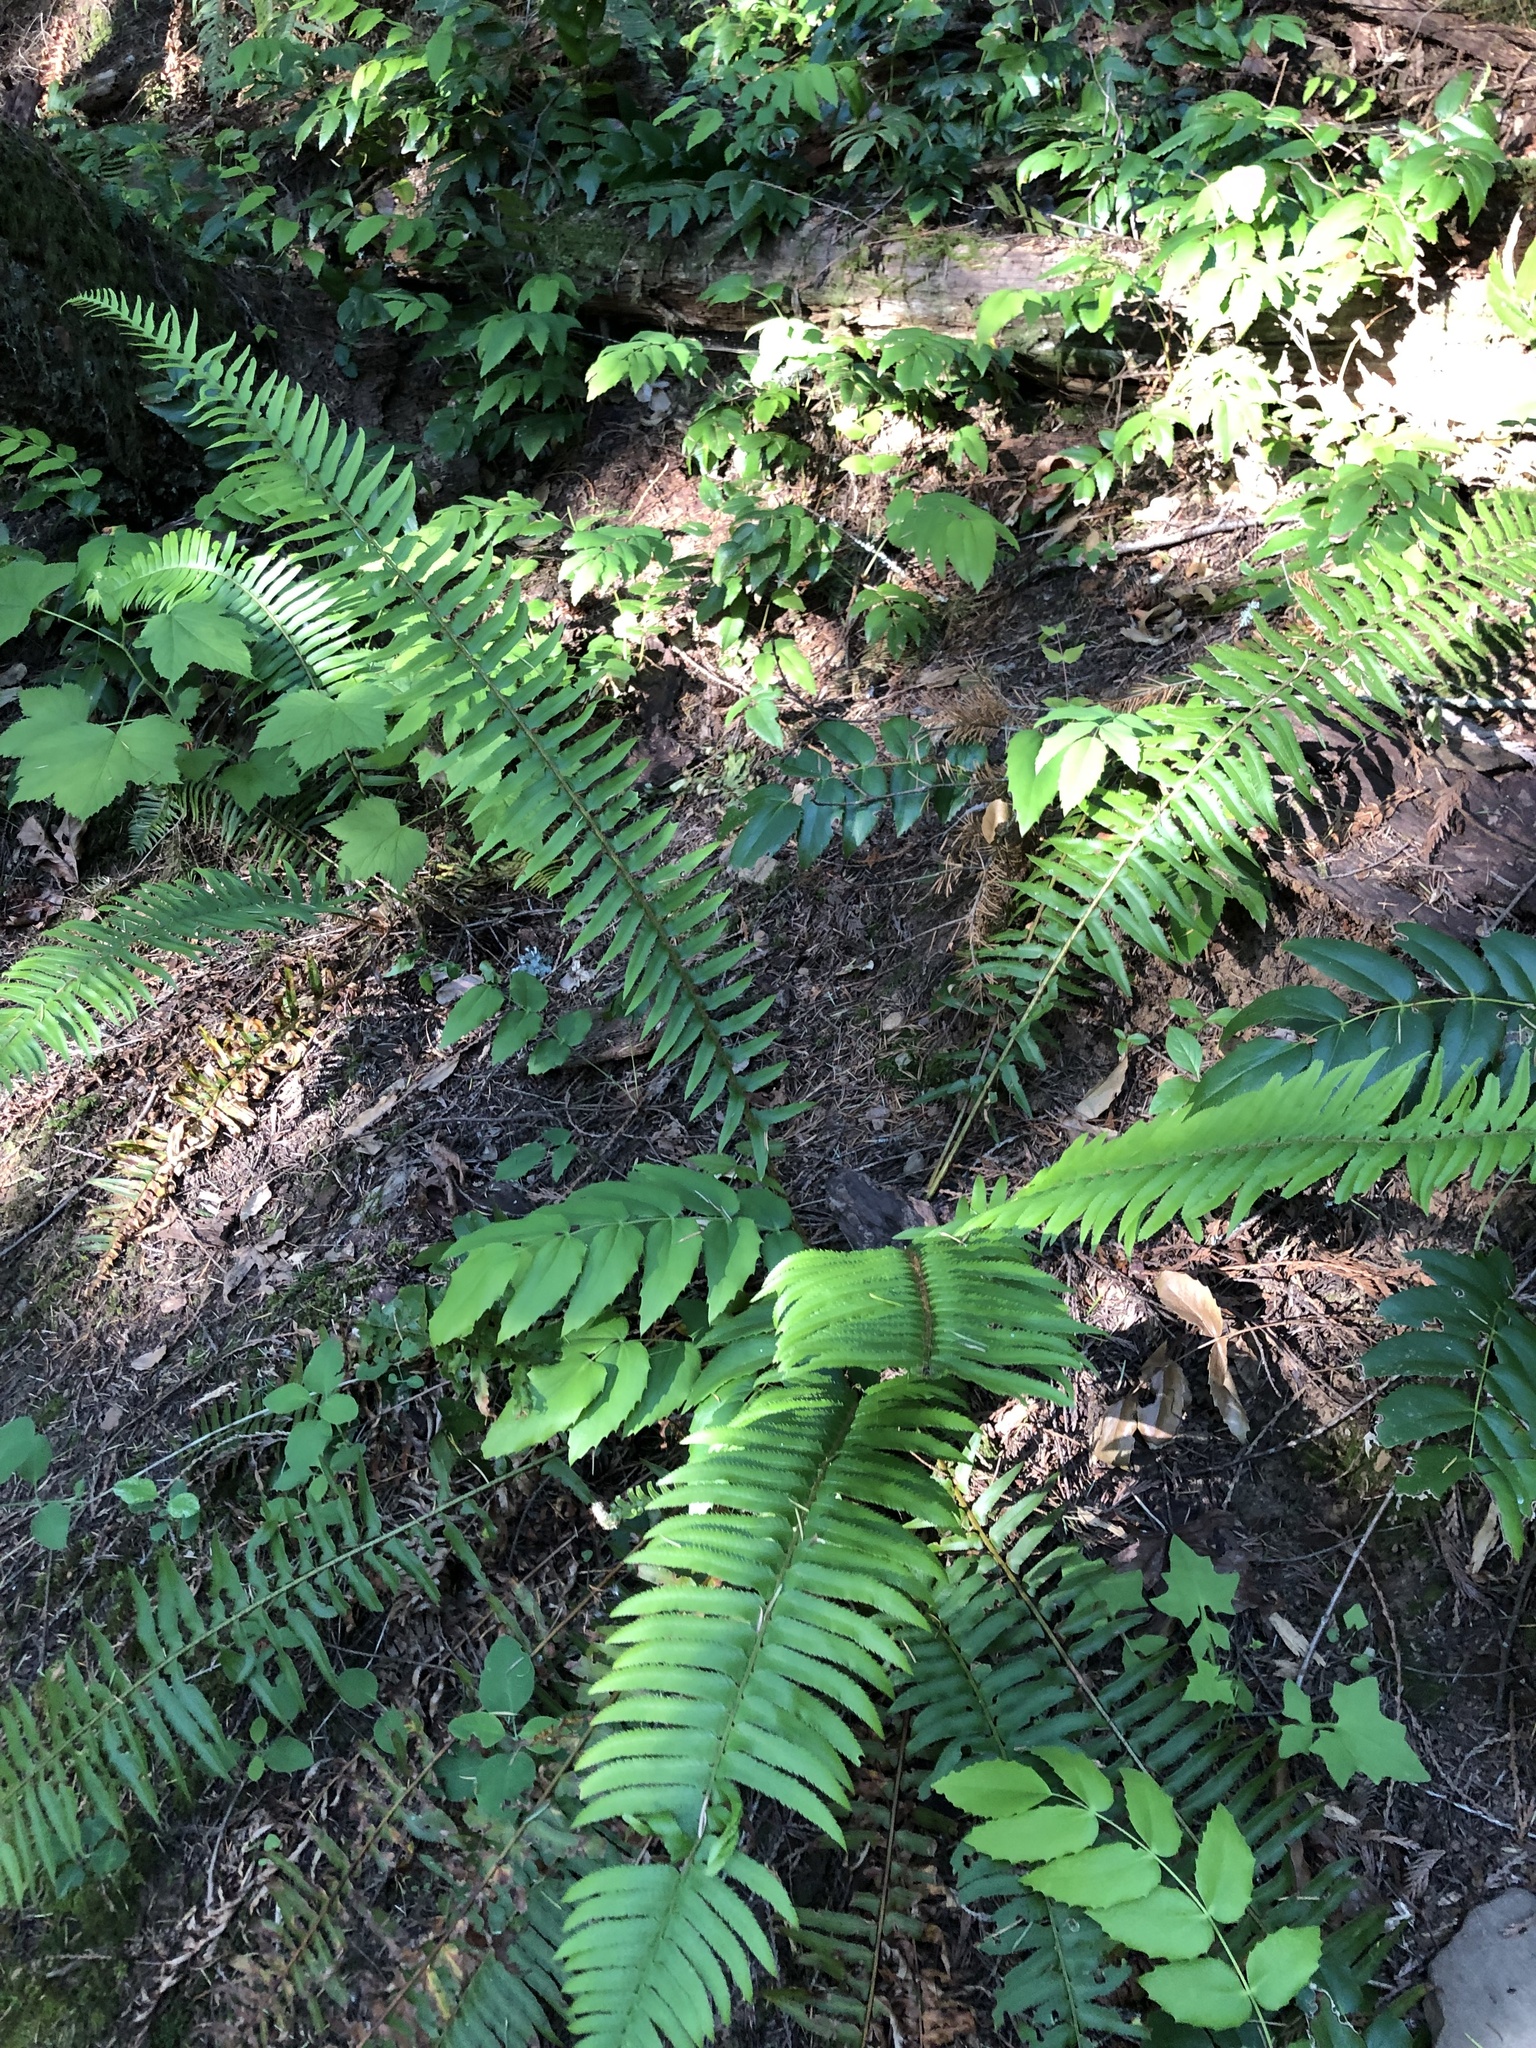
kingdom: Plantae
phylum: Tracheophyta
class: Polypodiopsida
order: Polypodiales
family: Dryopteridaceae
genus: Polystichum
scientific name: Polystichum munitum
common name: Western sword-fern
